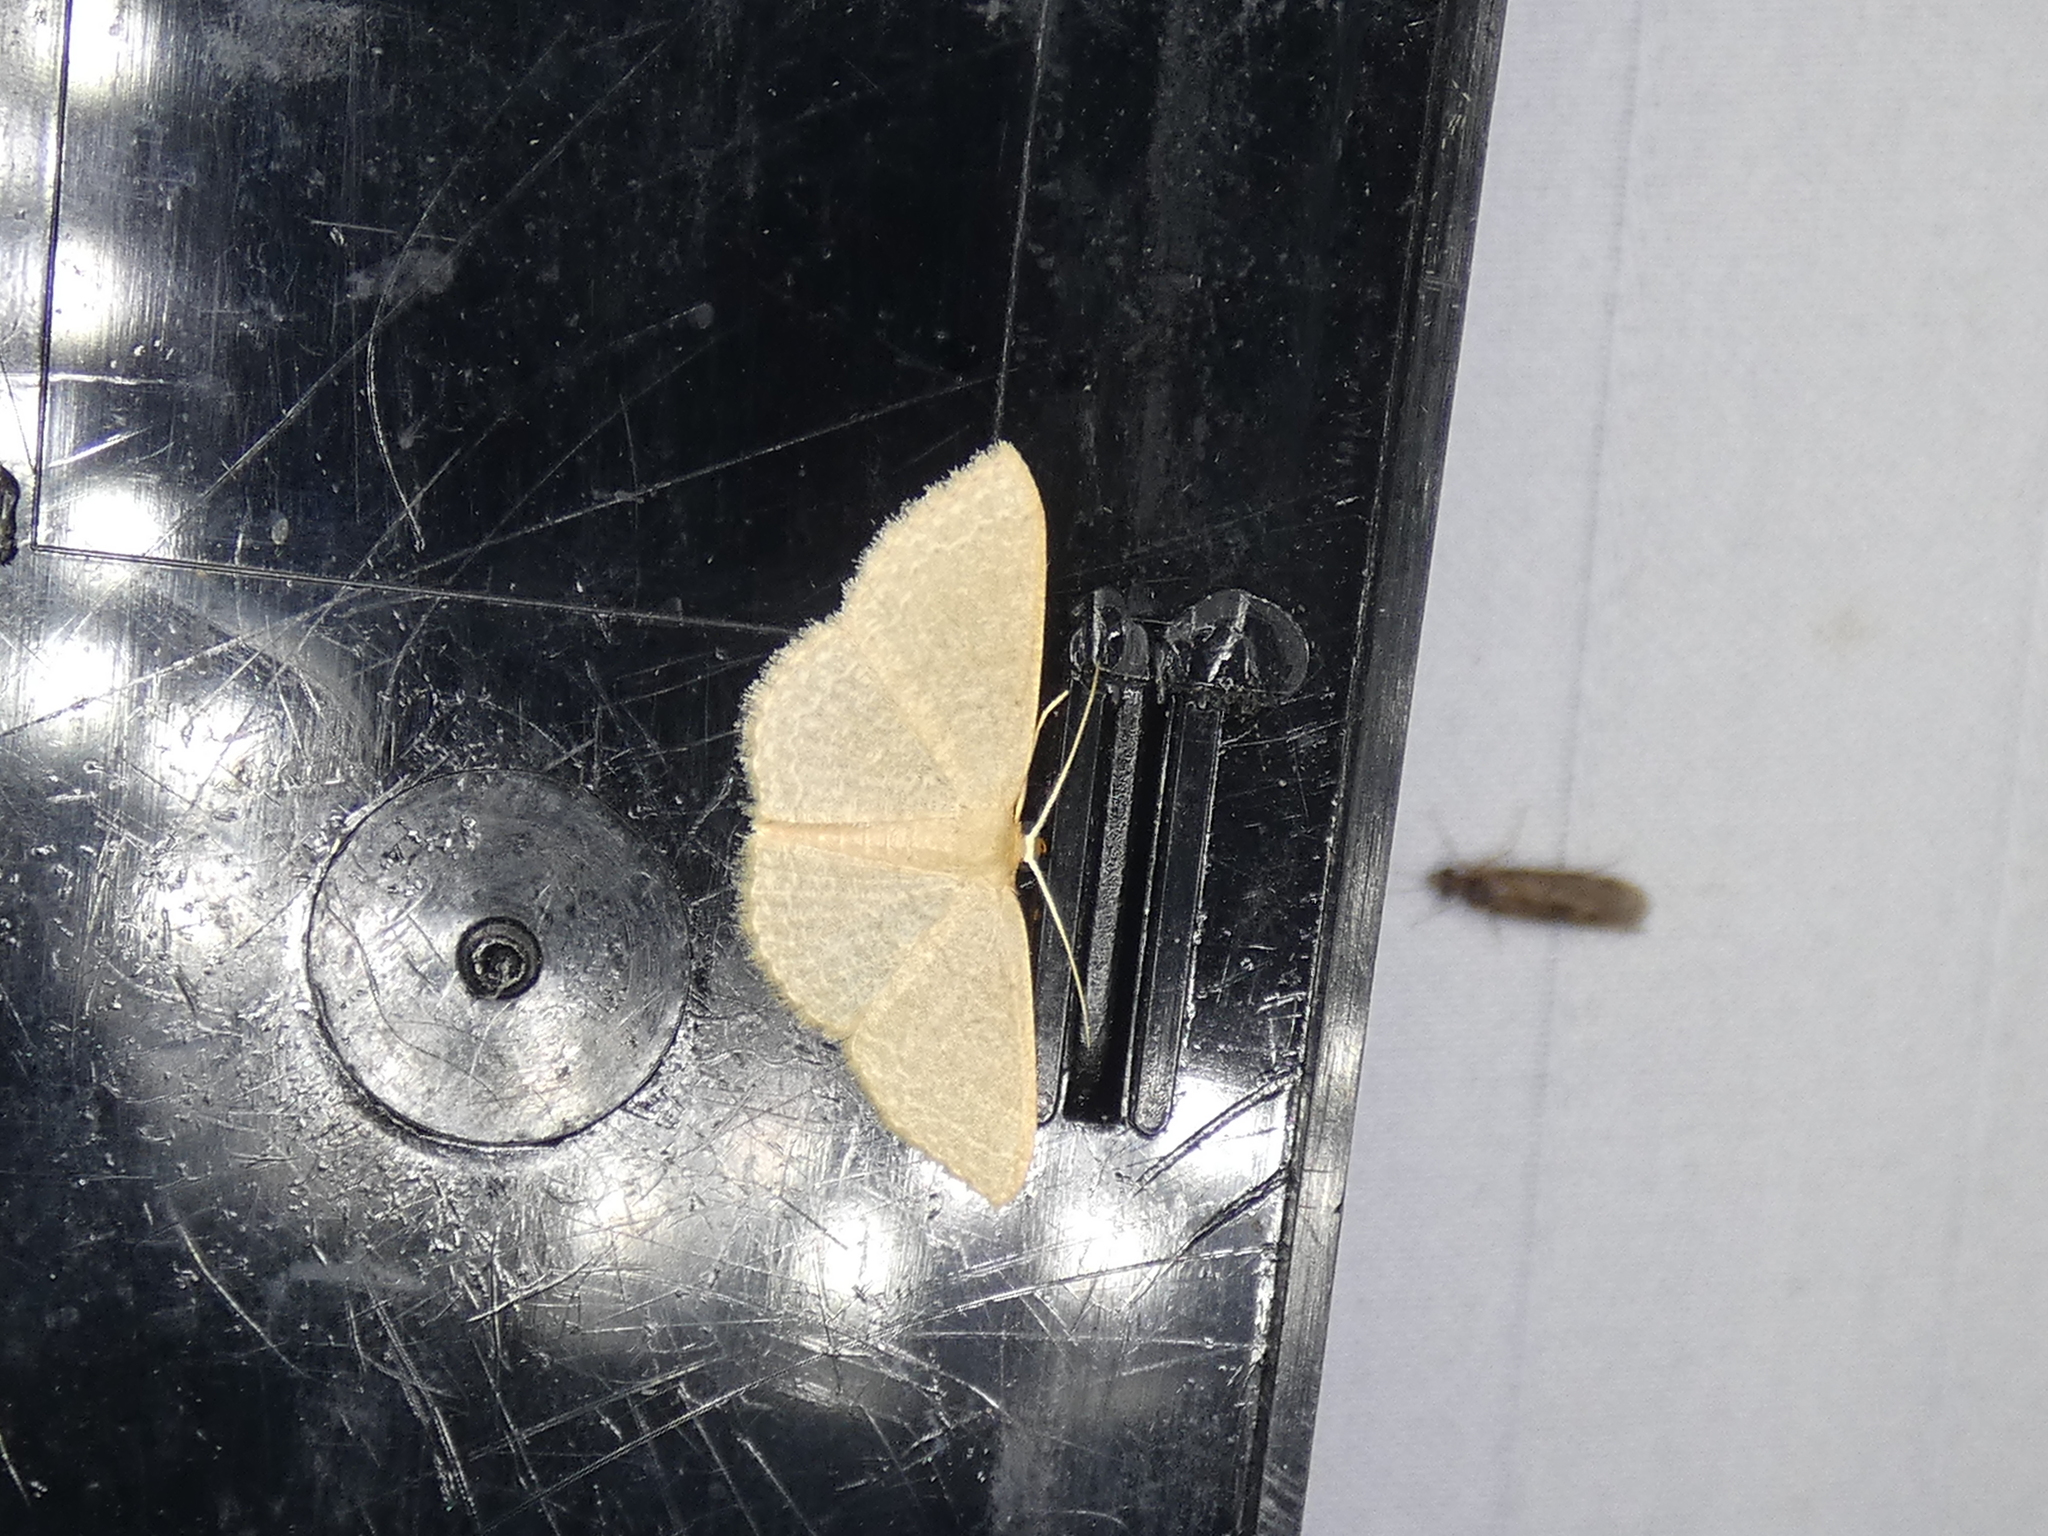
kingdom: Animalia
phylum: Arthropoda
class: Insecta
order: Lepidoptera
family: Geometridae
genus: Pleuroprucha
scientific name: Pleuroprucha insulsaria
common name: Common tan wave
